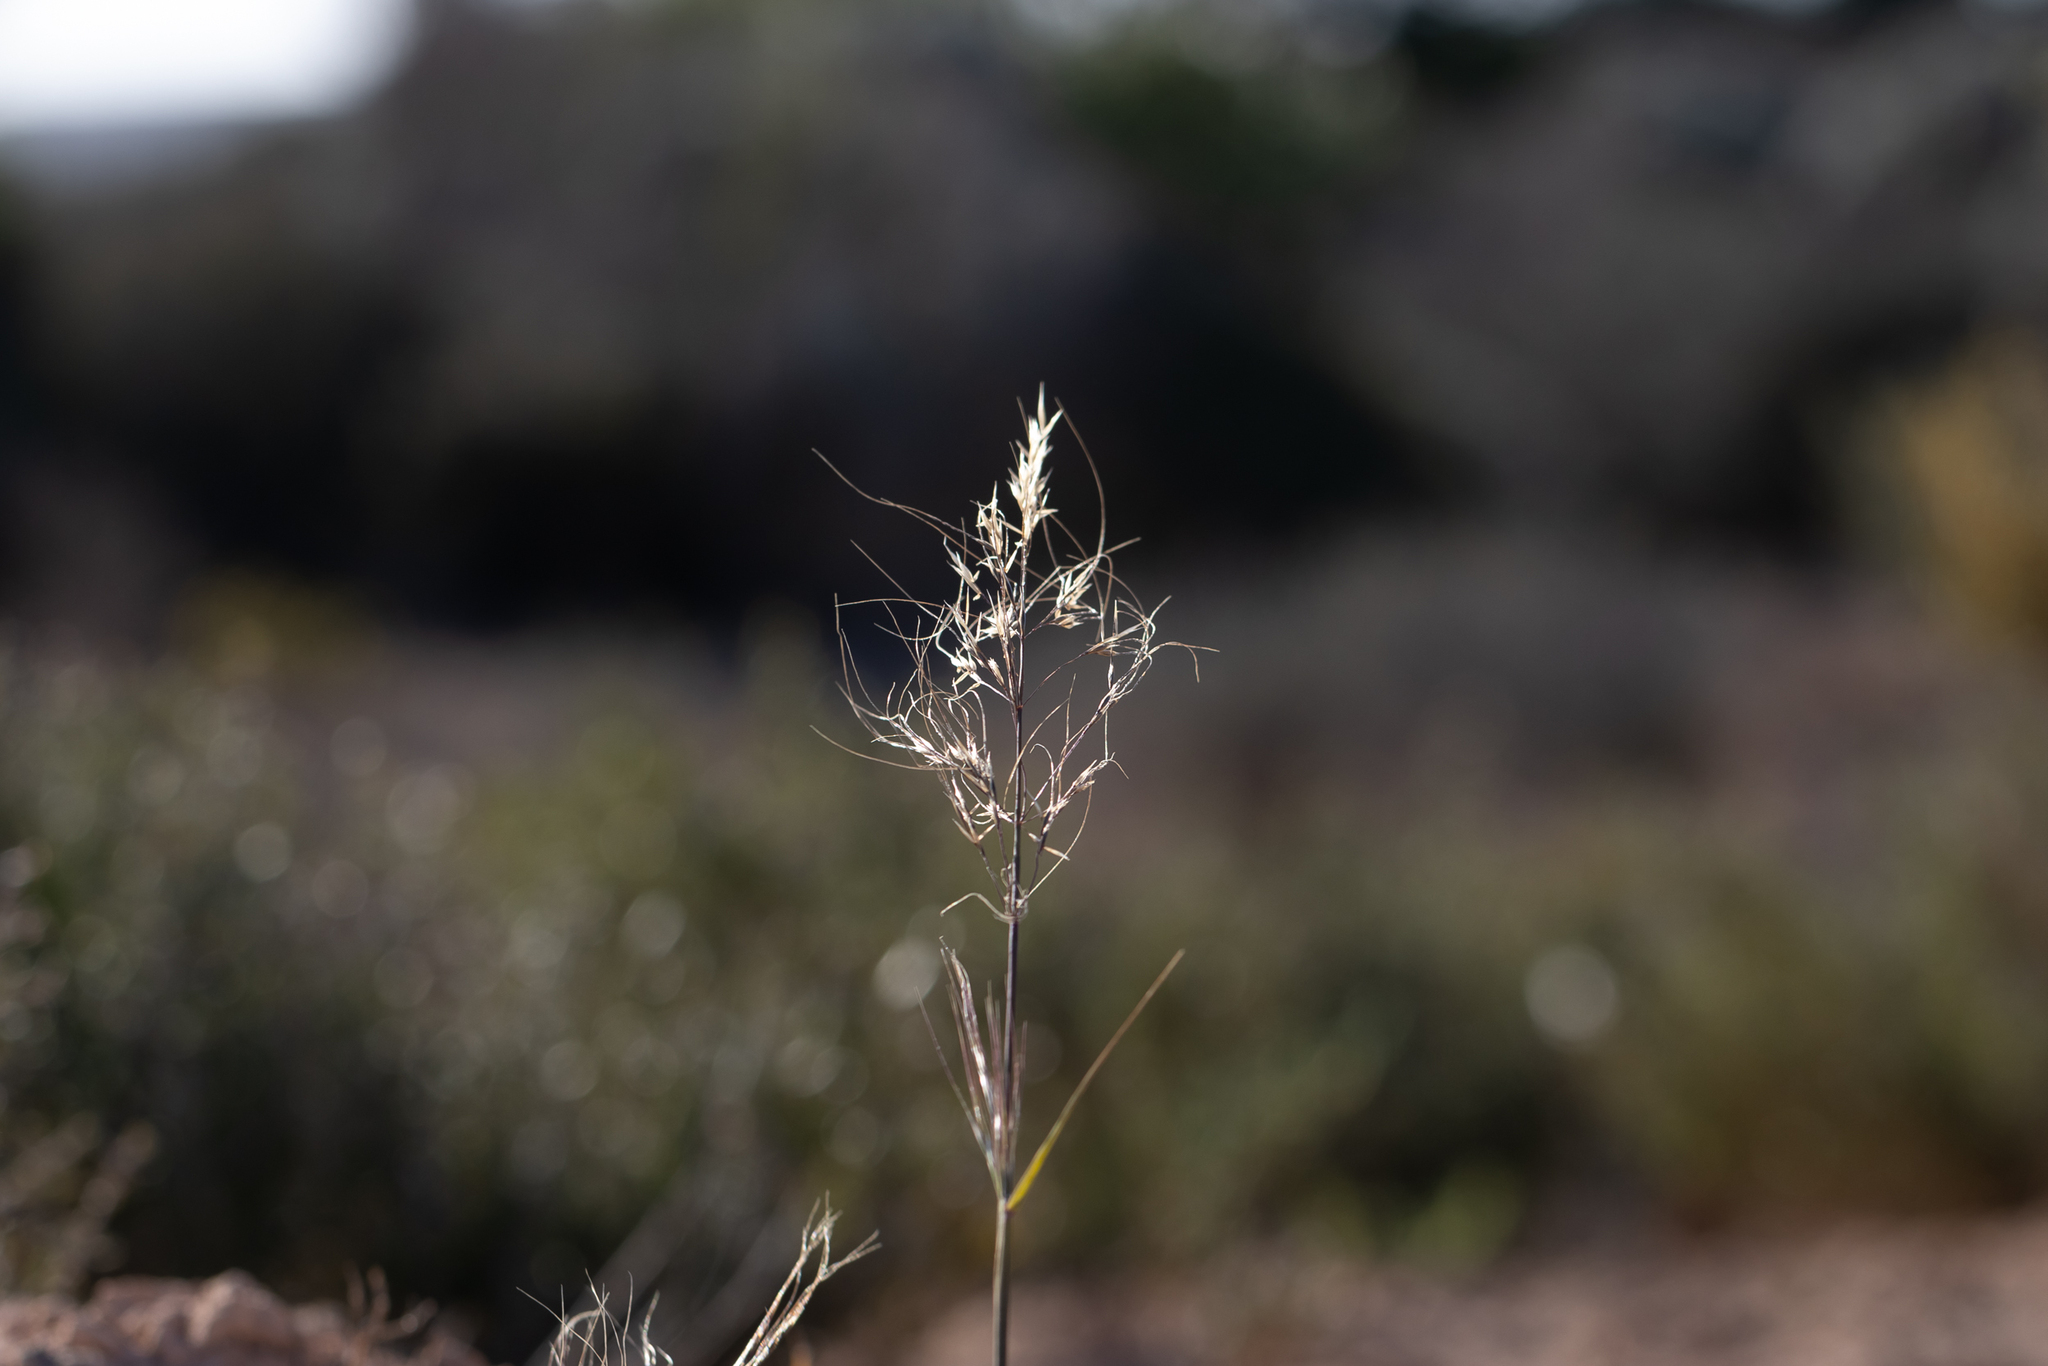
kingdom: Plantae
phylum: Tracheophyta
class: Liliopsida
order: Poales
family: Poaceae
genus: Austrostipa
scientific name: Austrostipa flavescens
